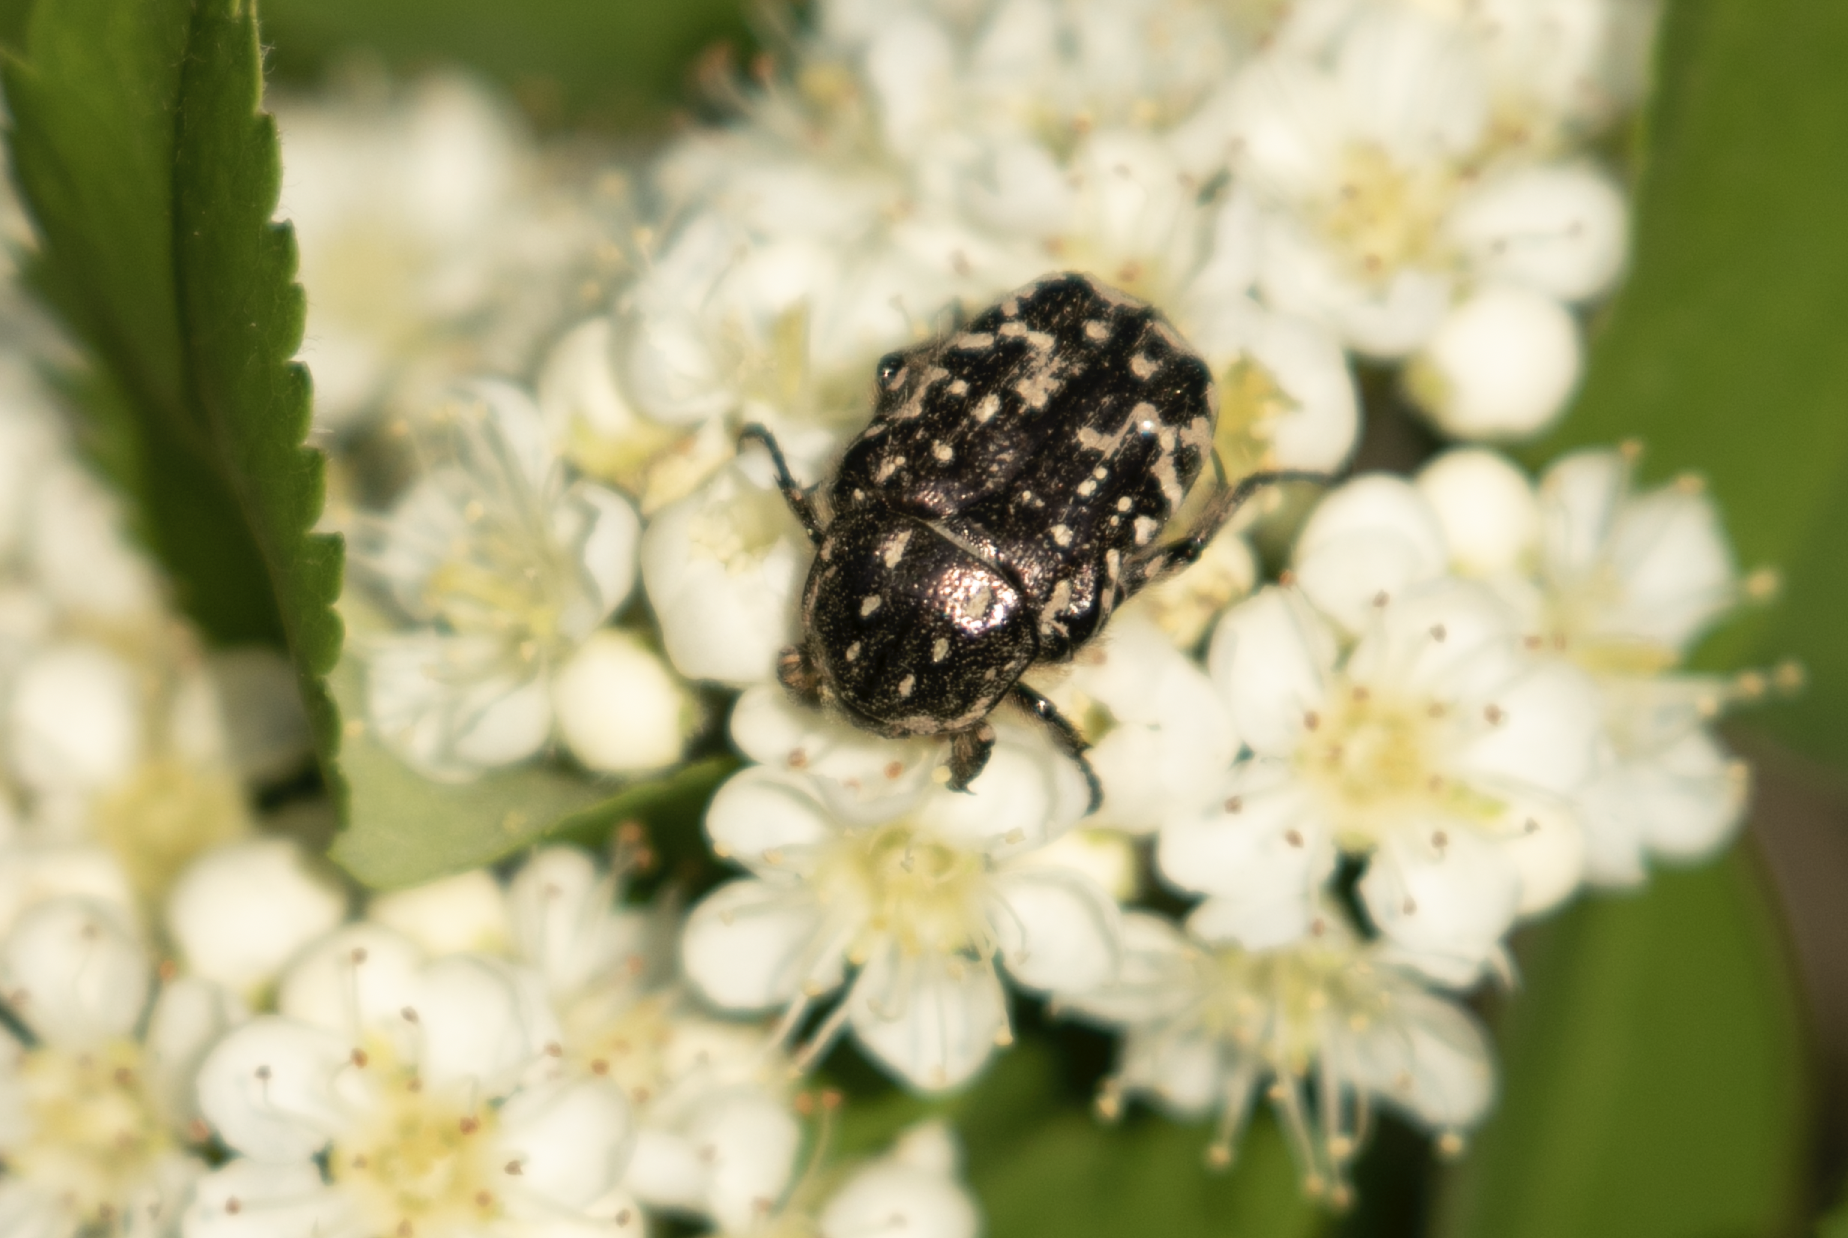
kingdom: Animalia
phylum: Arthropoda
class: Insecta
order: Coleoptera
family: Scarabaeidae
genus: Oxythyrea
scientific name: Oxythyrea funesta
